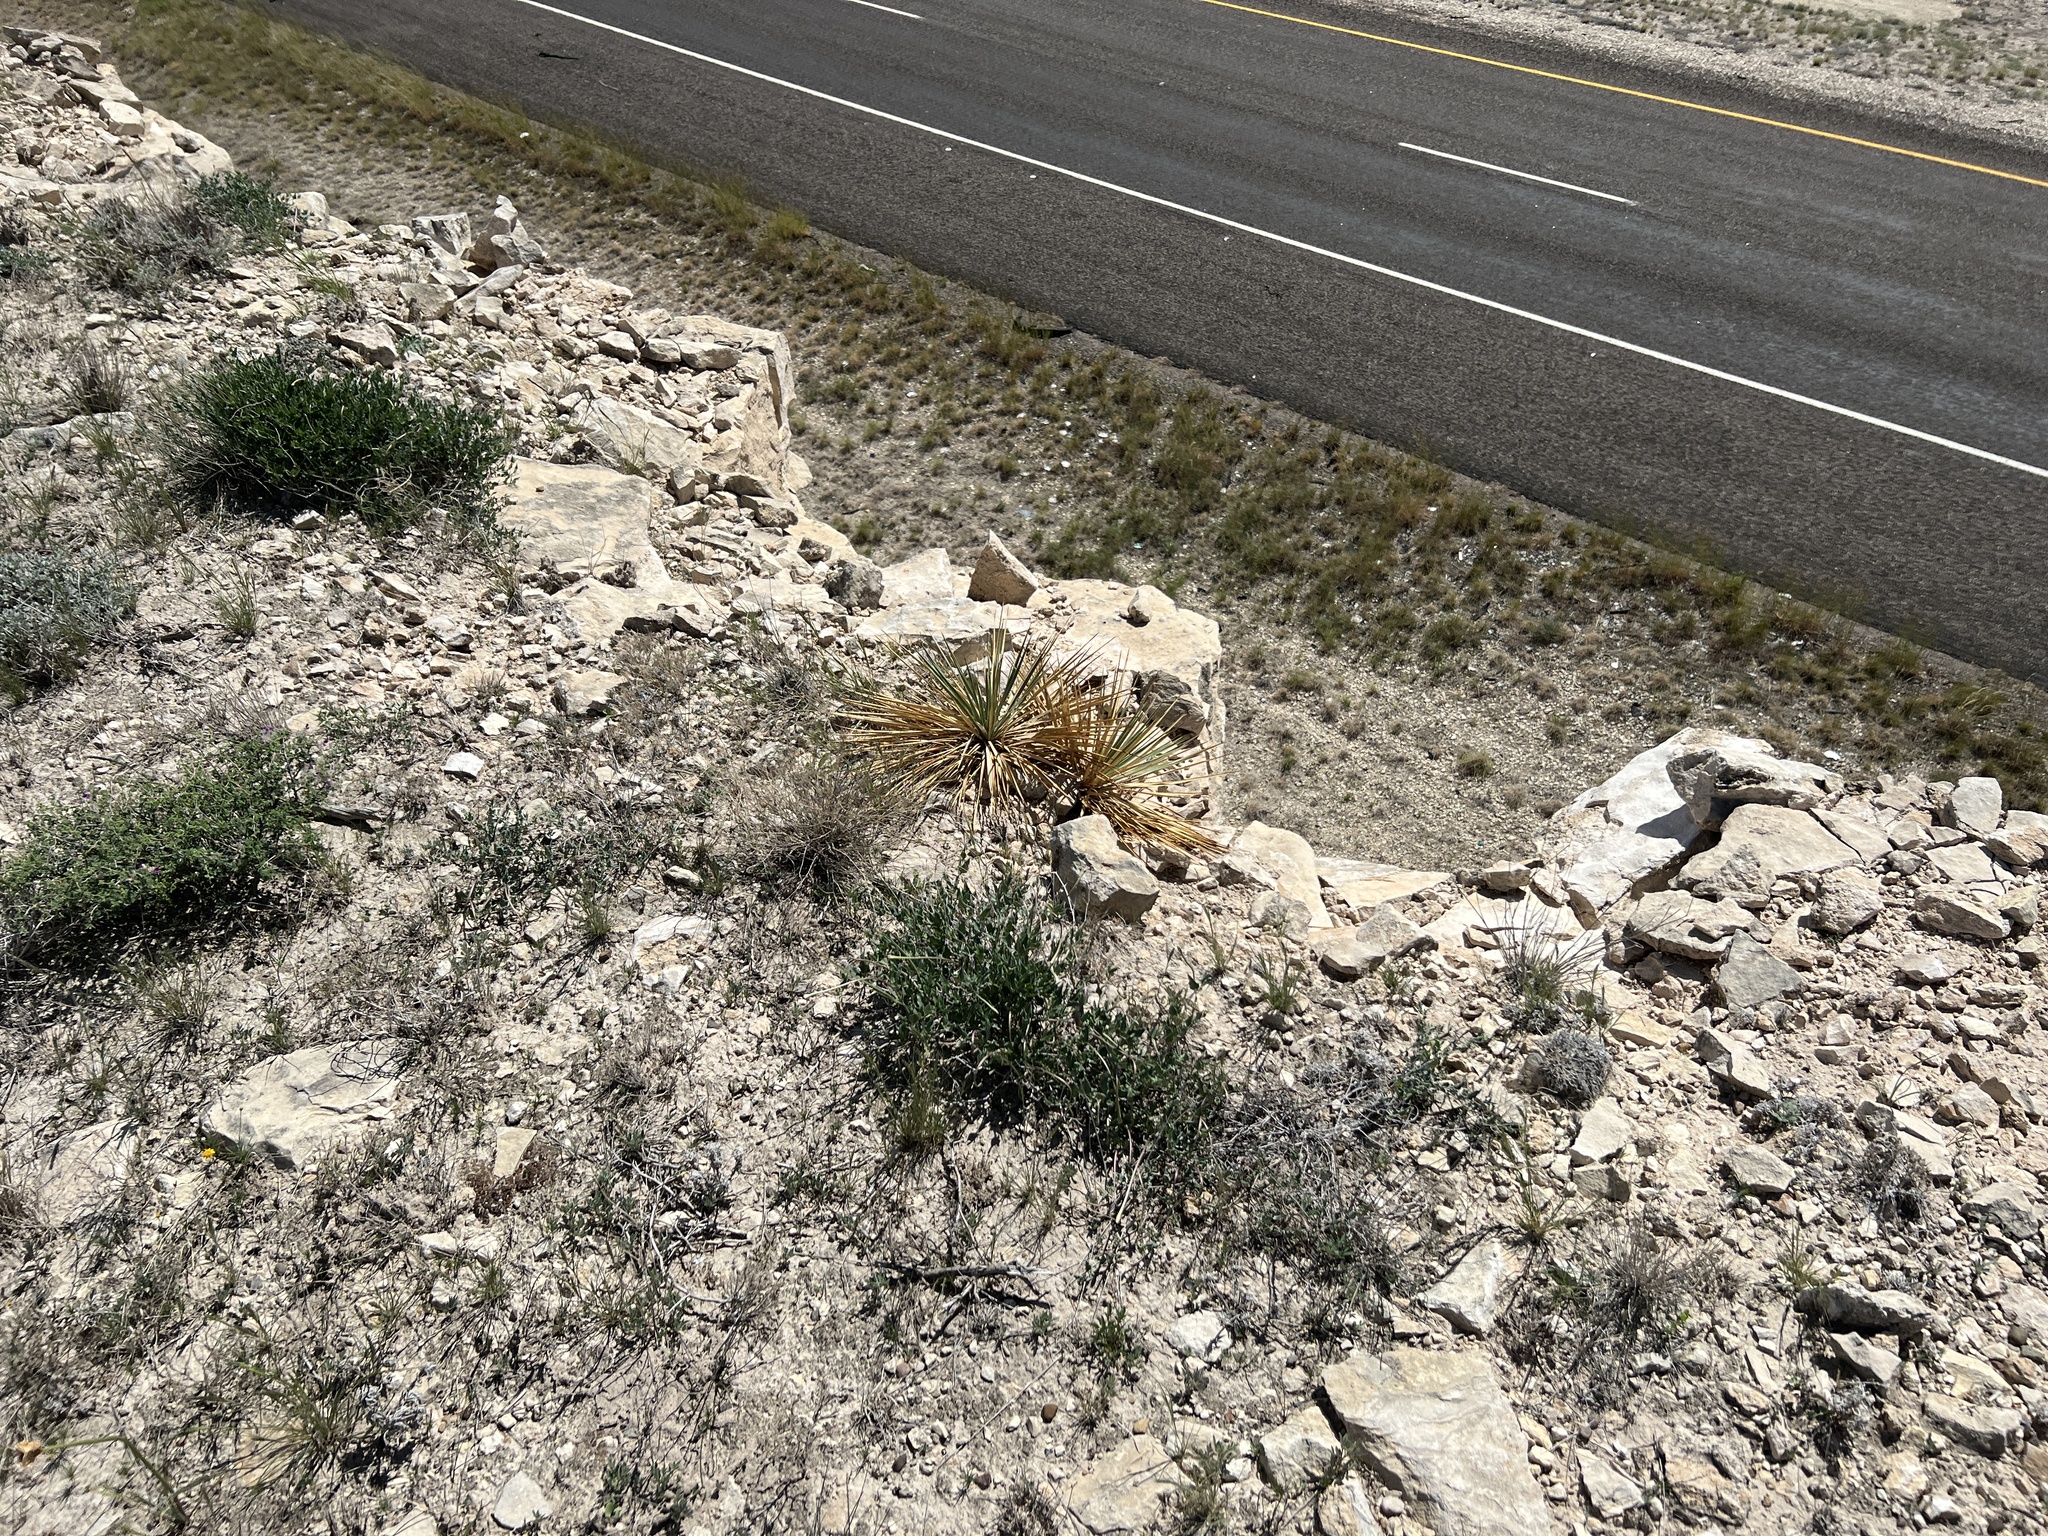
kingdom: Plantae
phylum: Tracheophyta
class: Liliopsida
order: Asparagales
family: Asparagaceae
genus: Yucca
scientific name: Yucca thompsoniana
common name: Trans-pecos yucca
